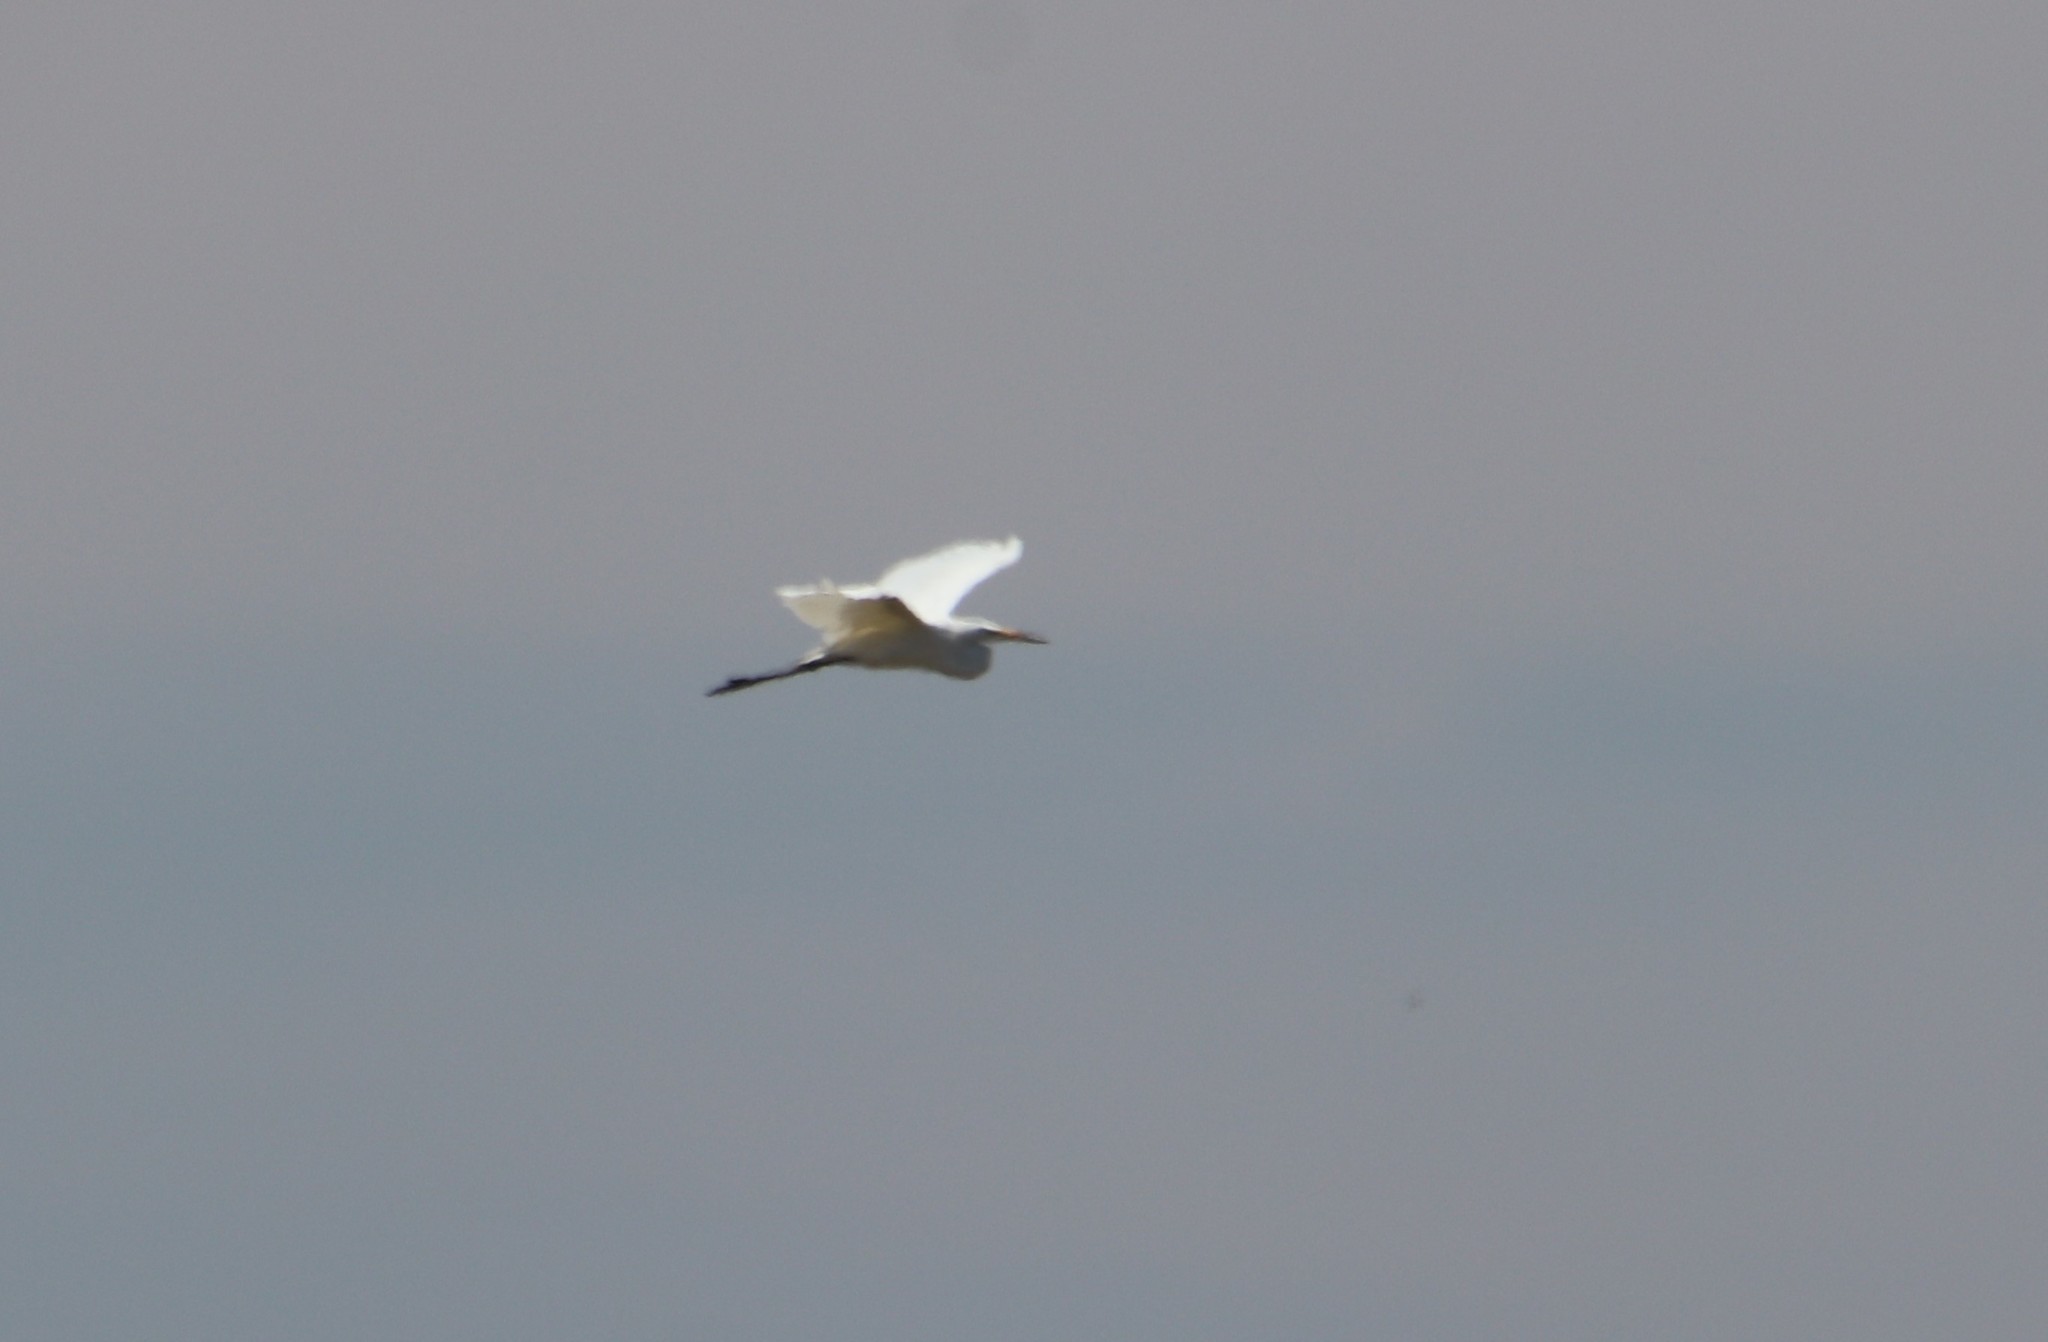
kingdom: Animalia
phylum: Chordata
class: Aves
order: Pelecaniformes
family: Ardeidae
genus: Ardea
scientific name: Ardea alba
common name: Great egret
